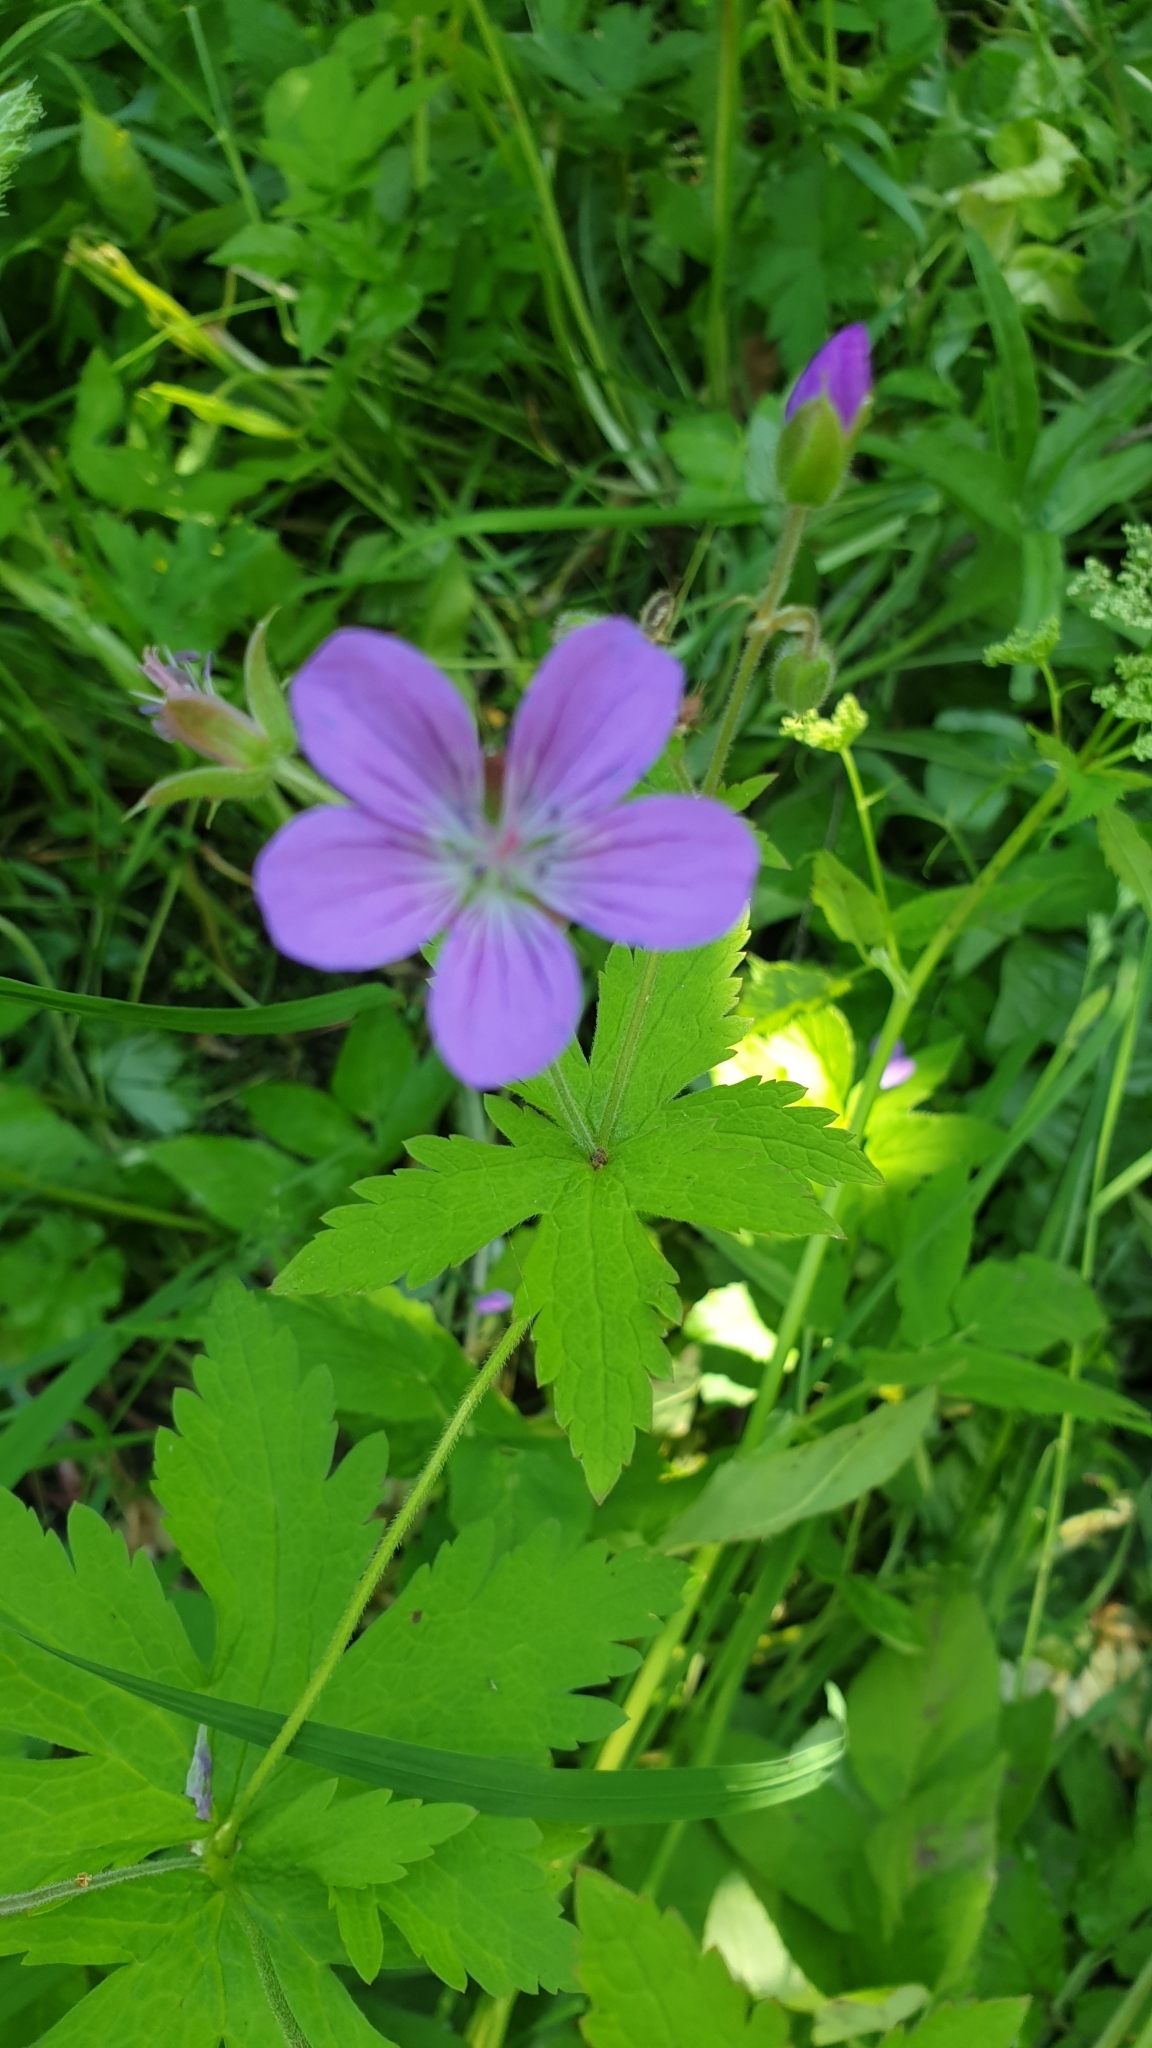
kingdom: Plantae
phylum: Tracheophyta
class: Magnoliopsida
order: Geraniales
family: Geraniaceae
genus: Geranium
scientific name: Geranium sylvaticum
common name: Wood crane's-bill
